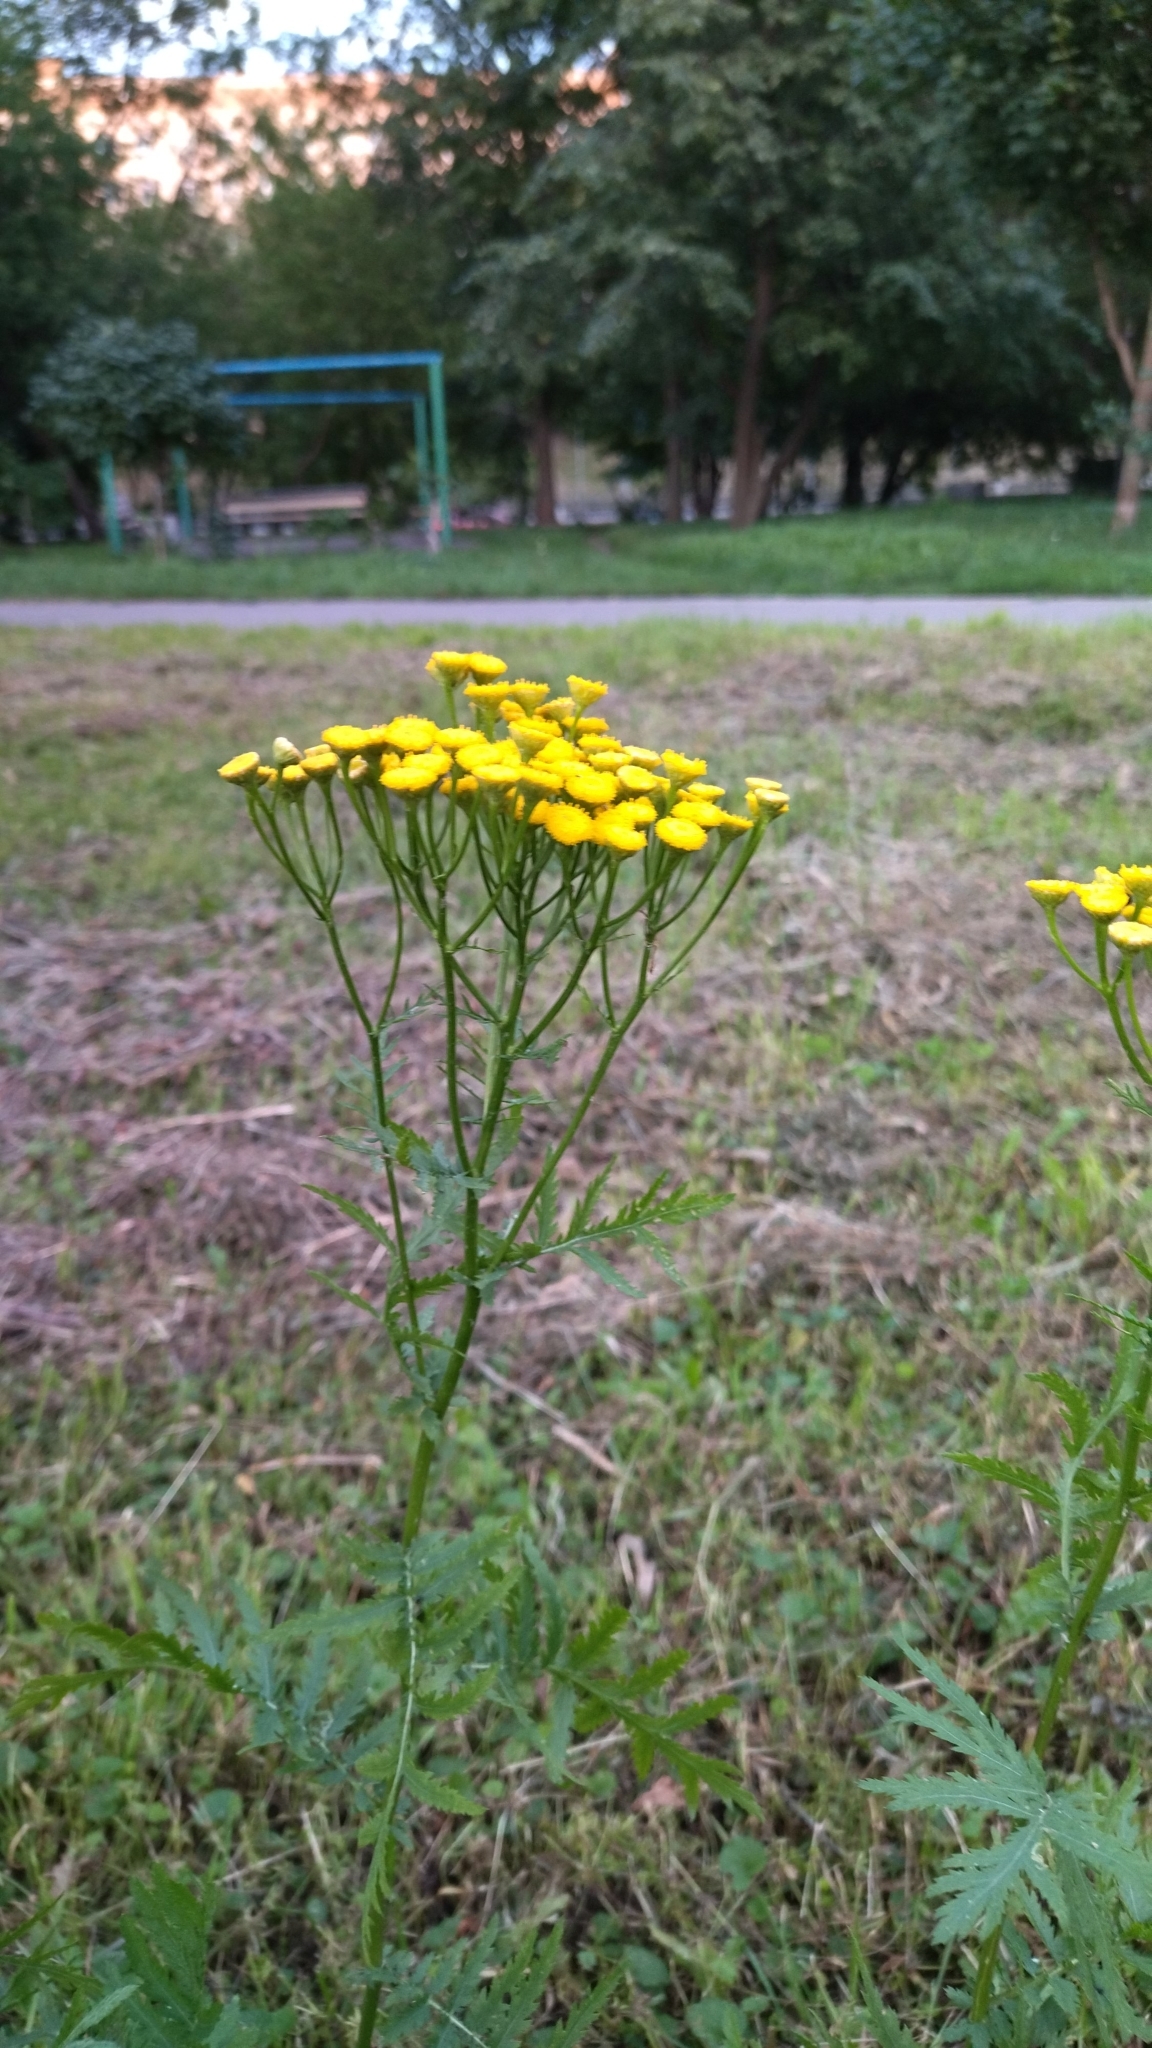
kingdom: Plantae
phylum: Tracheophyta
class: Magnoliopsida
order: Asterales
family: Asteraceae
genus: Tanacetum
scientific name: Tanacetum vulgare
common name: Common tansy
